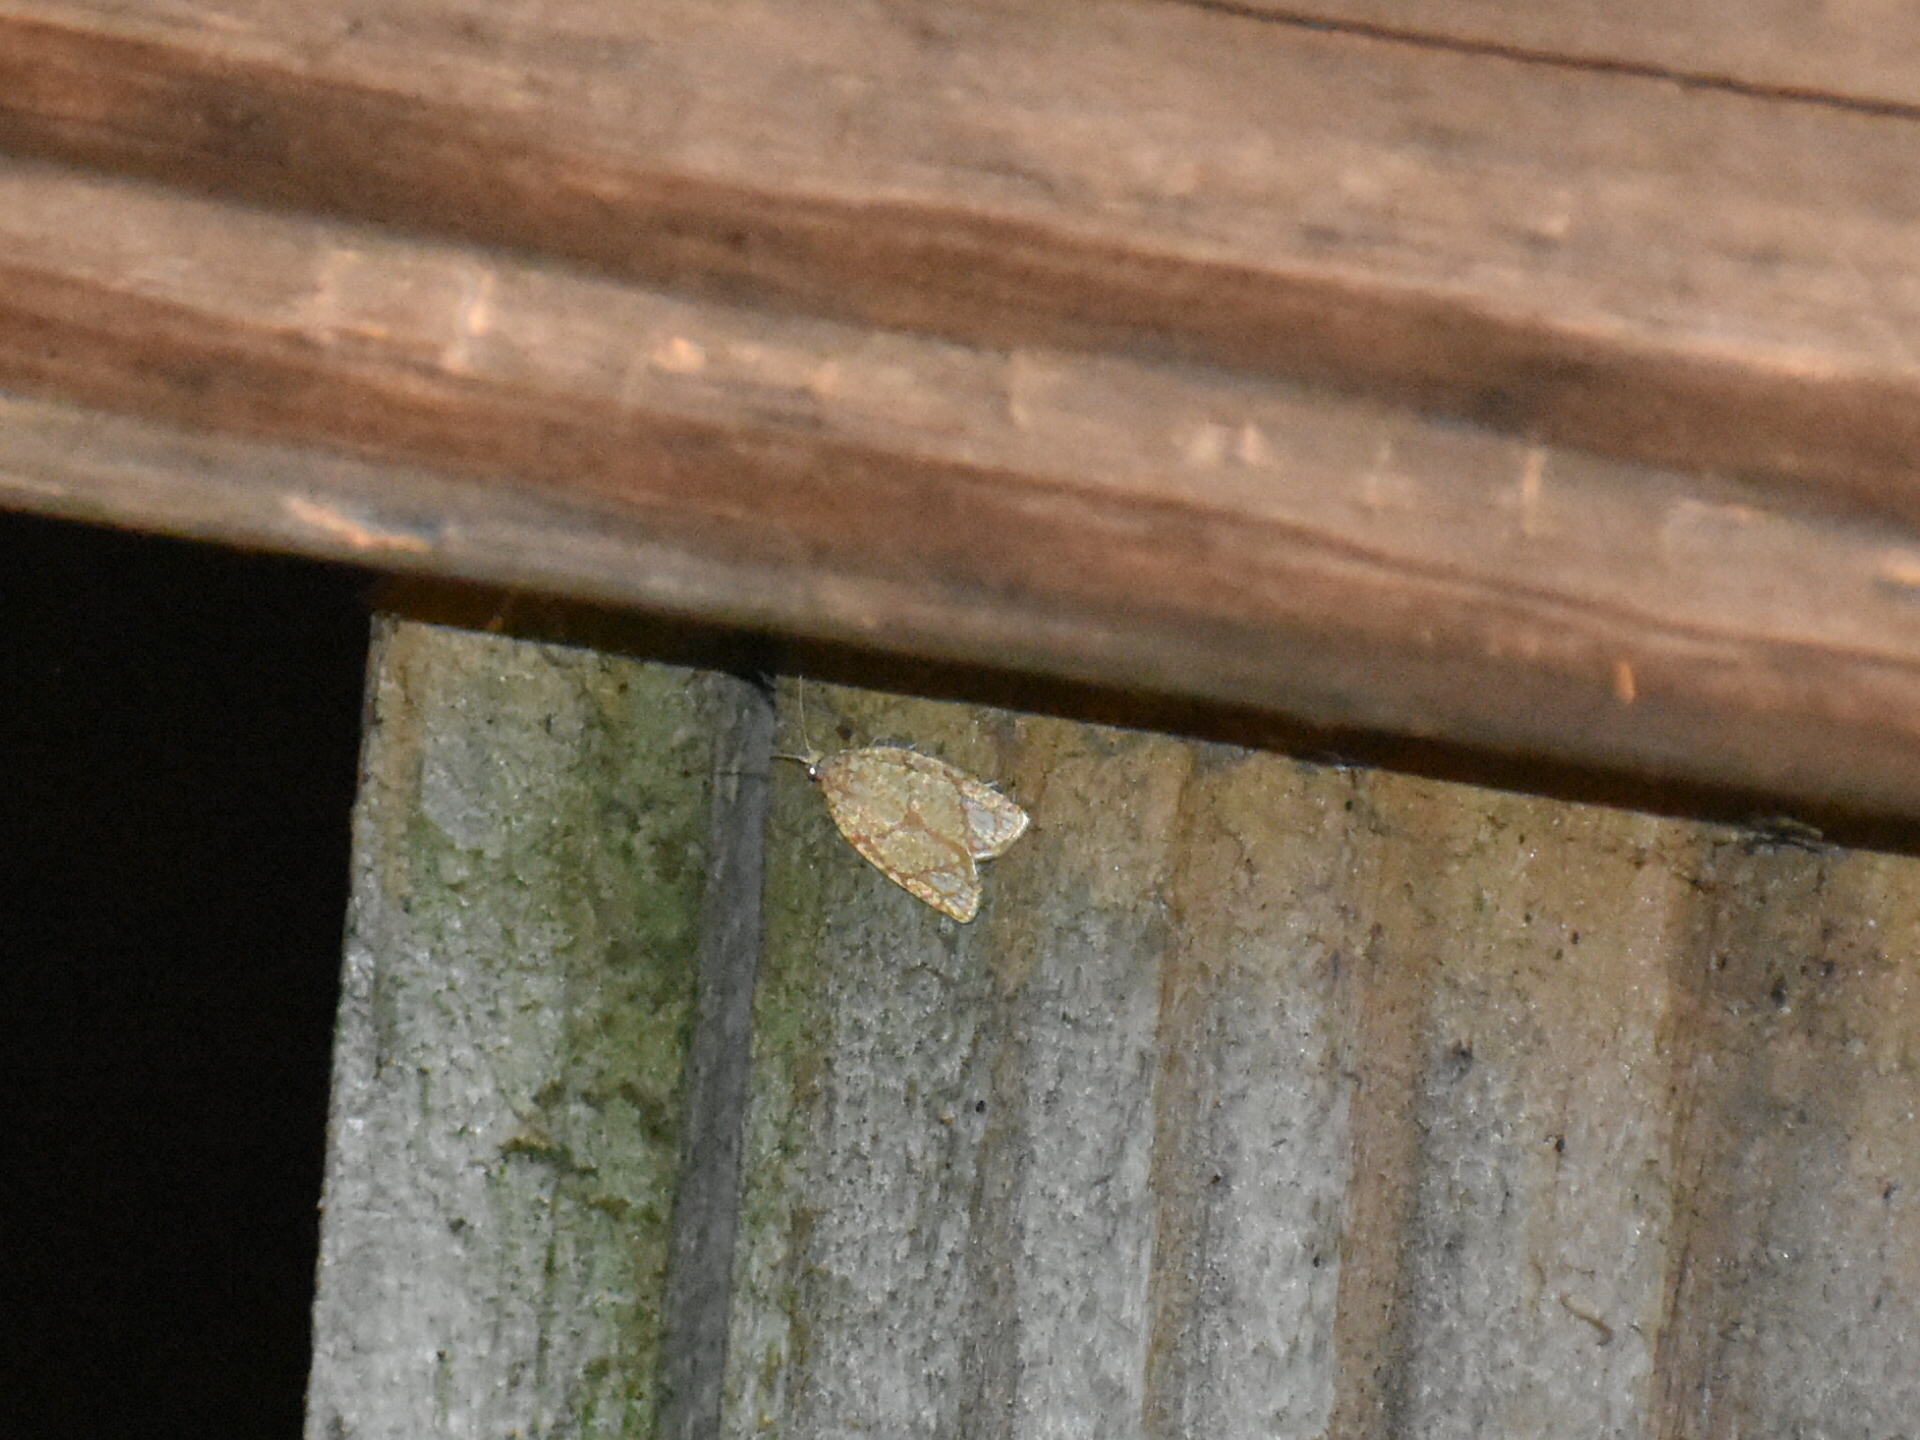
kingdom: Animalia
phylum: Arthropoda
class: Insecta
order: Lepidoptera
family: Tortricidae
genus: Argyrotaenia
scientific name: Argyrotaenia quercifoliana
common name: Yellow-winged oak leafroller moth
